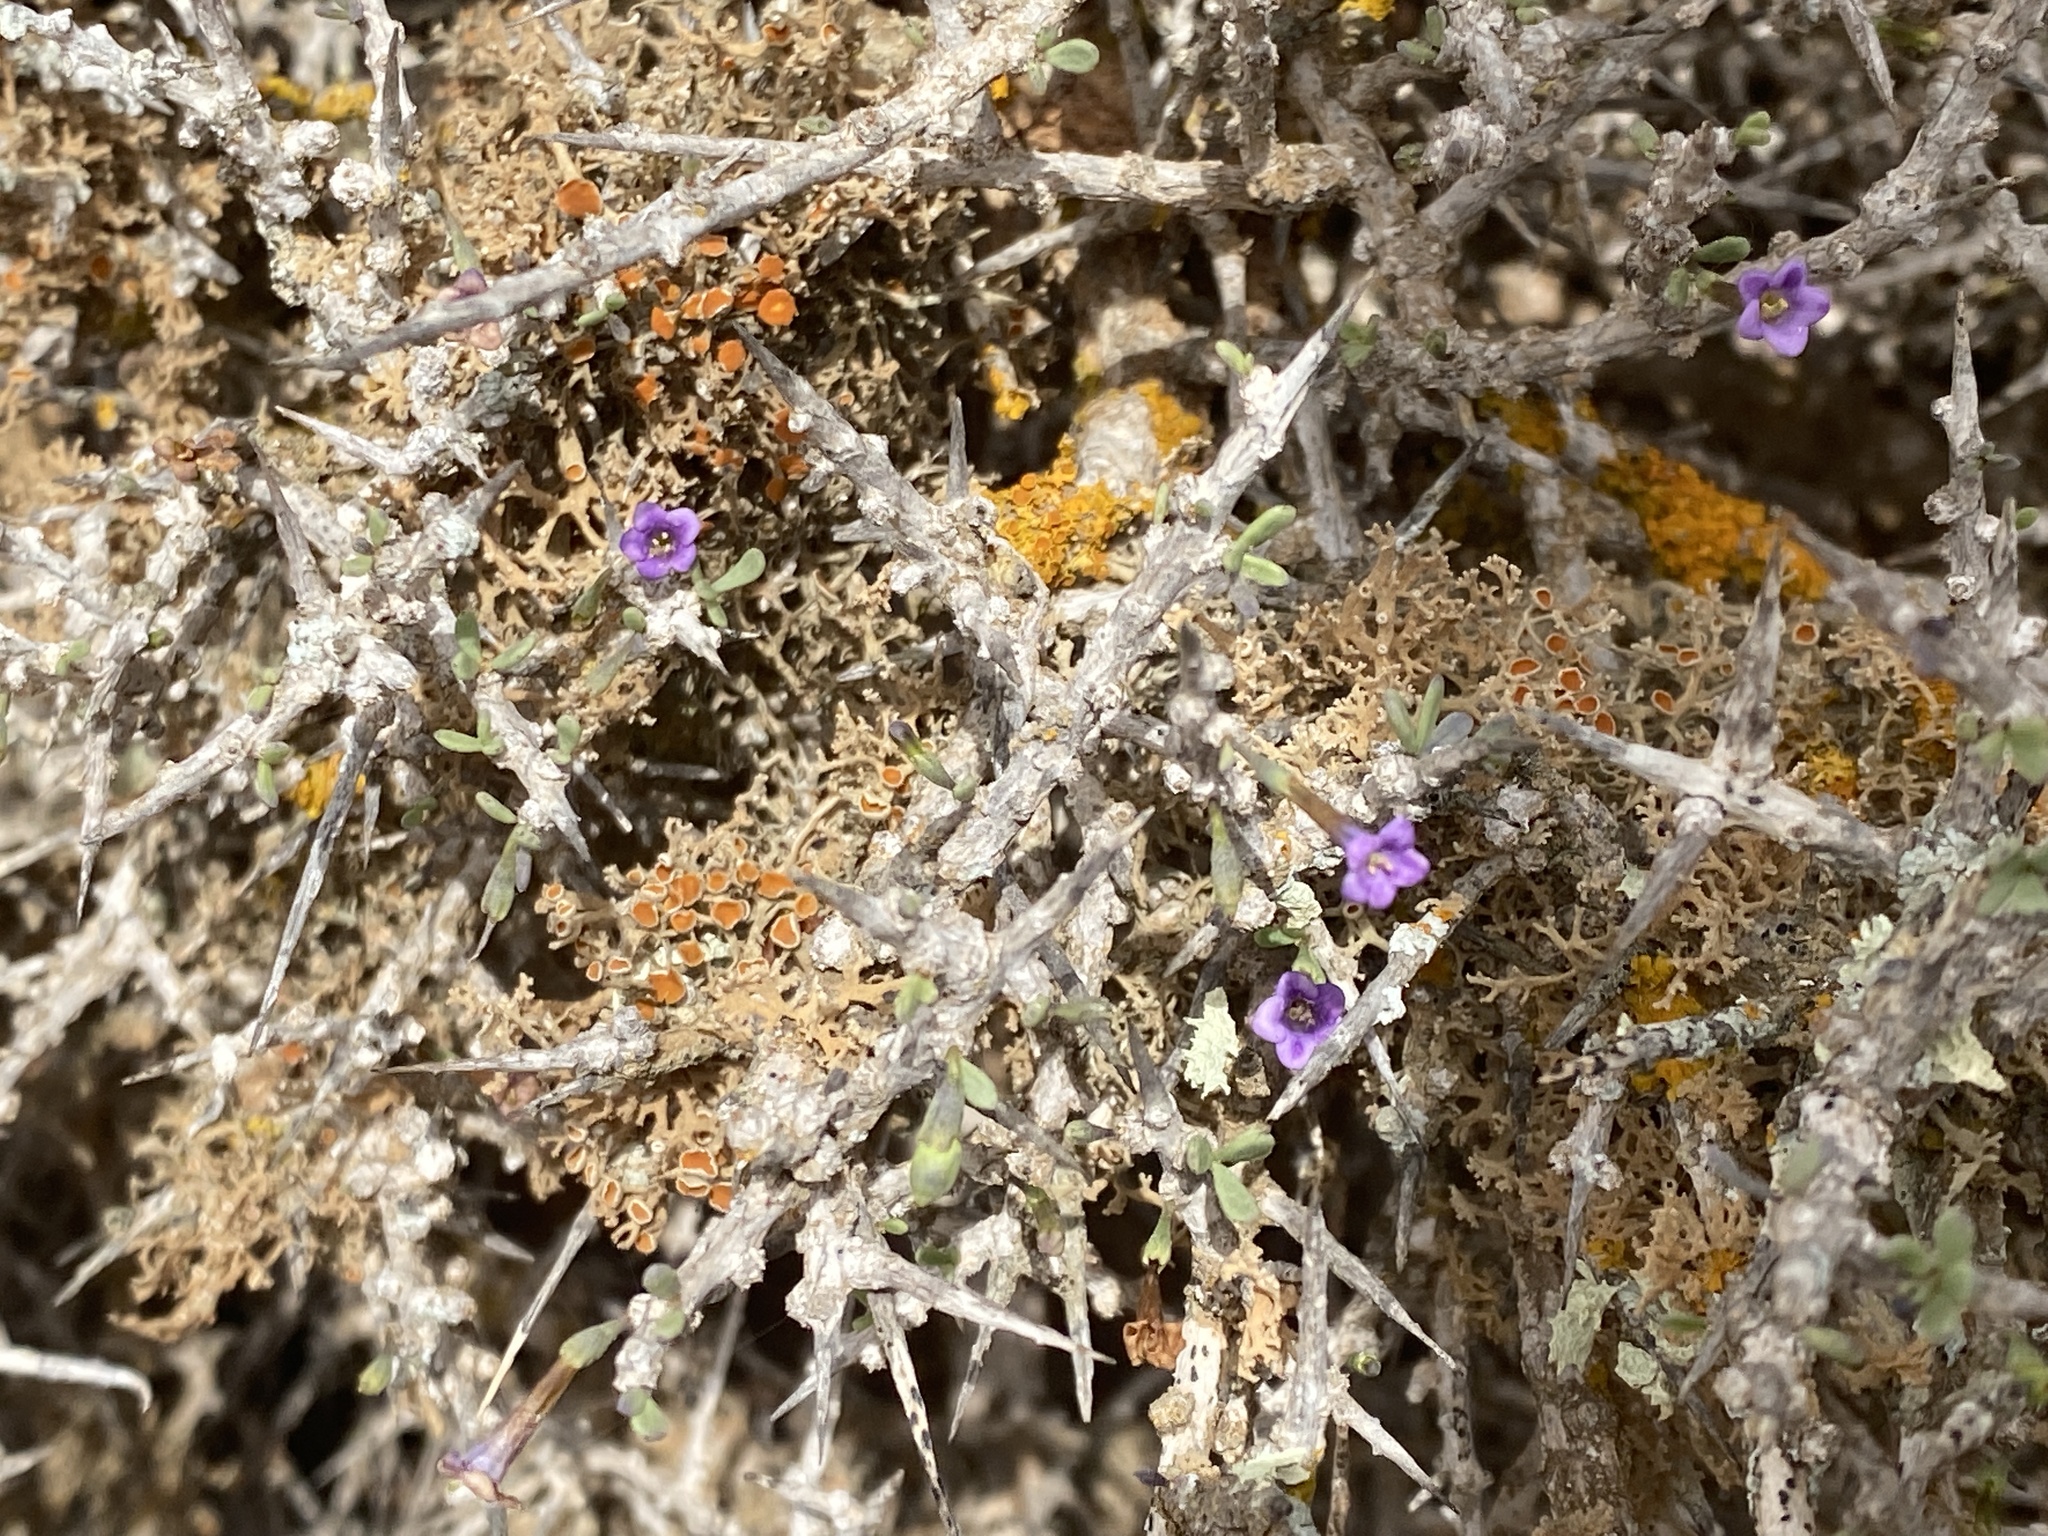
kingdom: Plantae
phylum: Tracheophyta
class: Magnoliopsida
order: Solanales
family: Solanaceae
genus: Lycium
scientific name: Lycium intricatum
